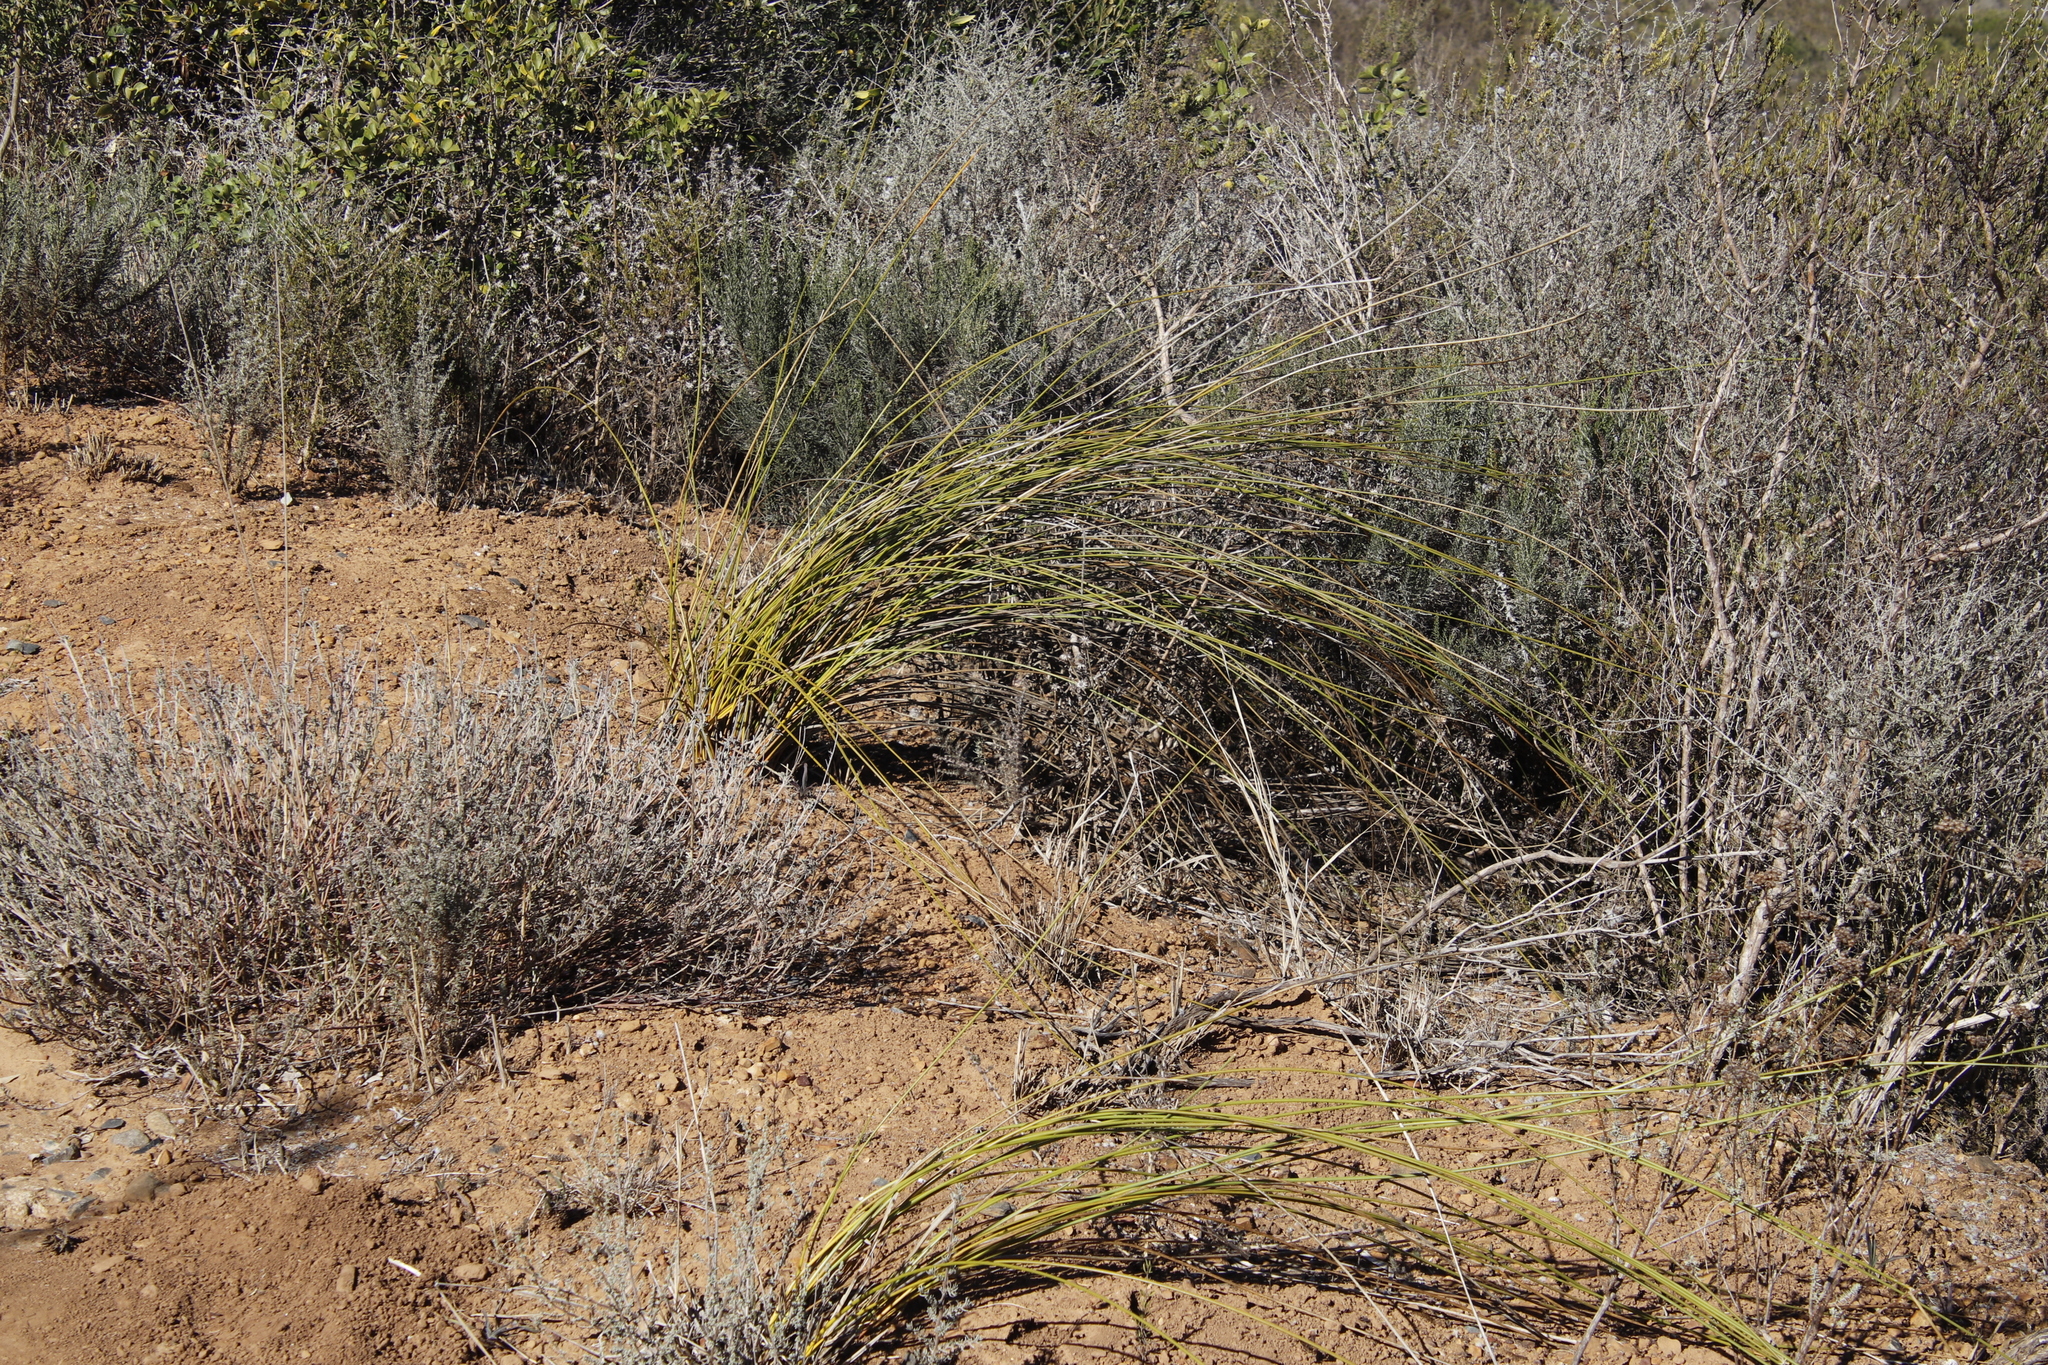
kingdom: Plantae
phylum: Tracheophyta
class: Liliopsida
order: Asparagales
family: Iridaceae
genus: Bobartia
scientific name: Bobartia indica
